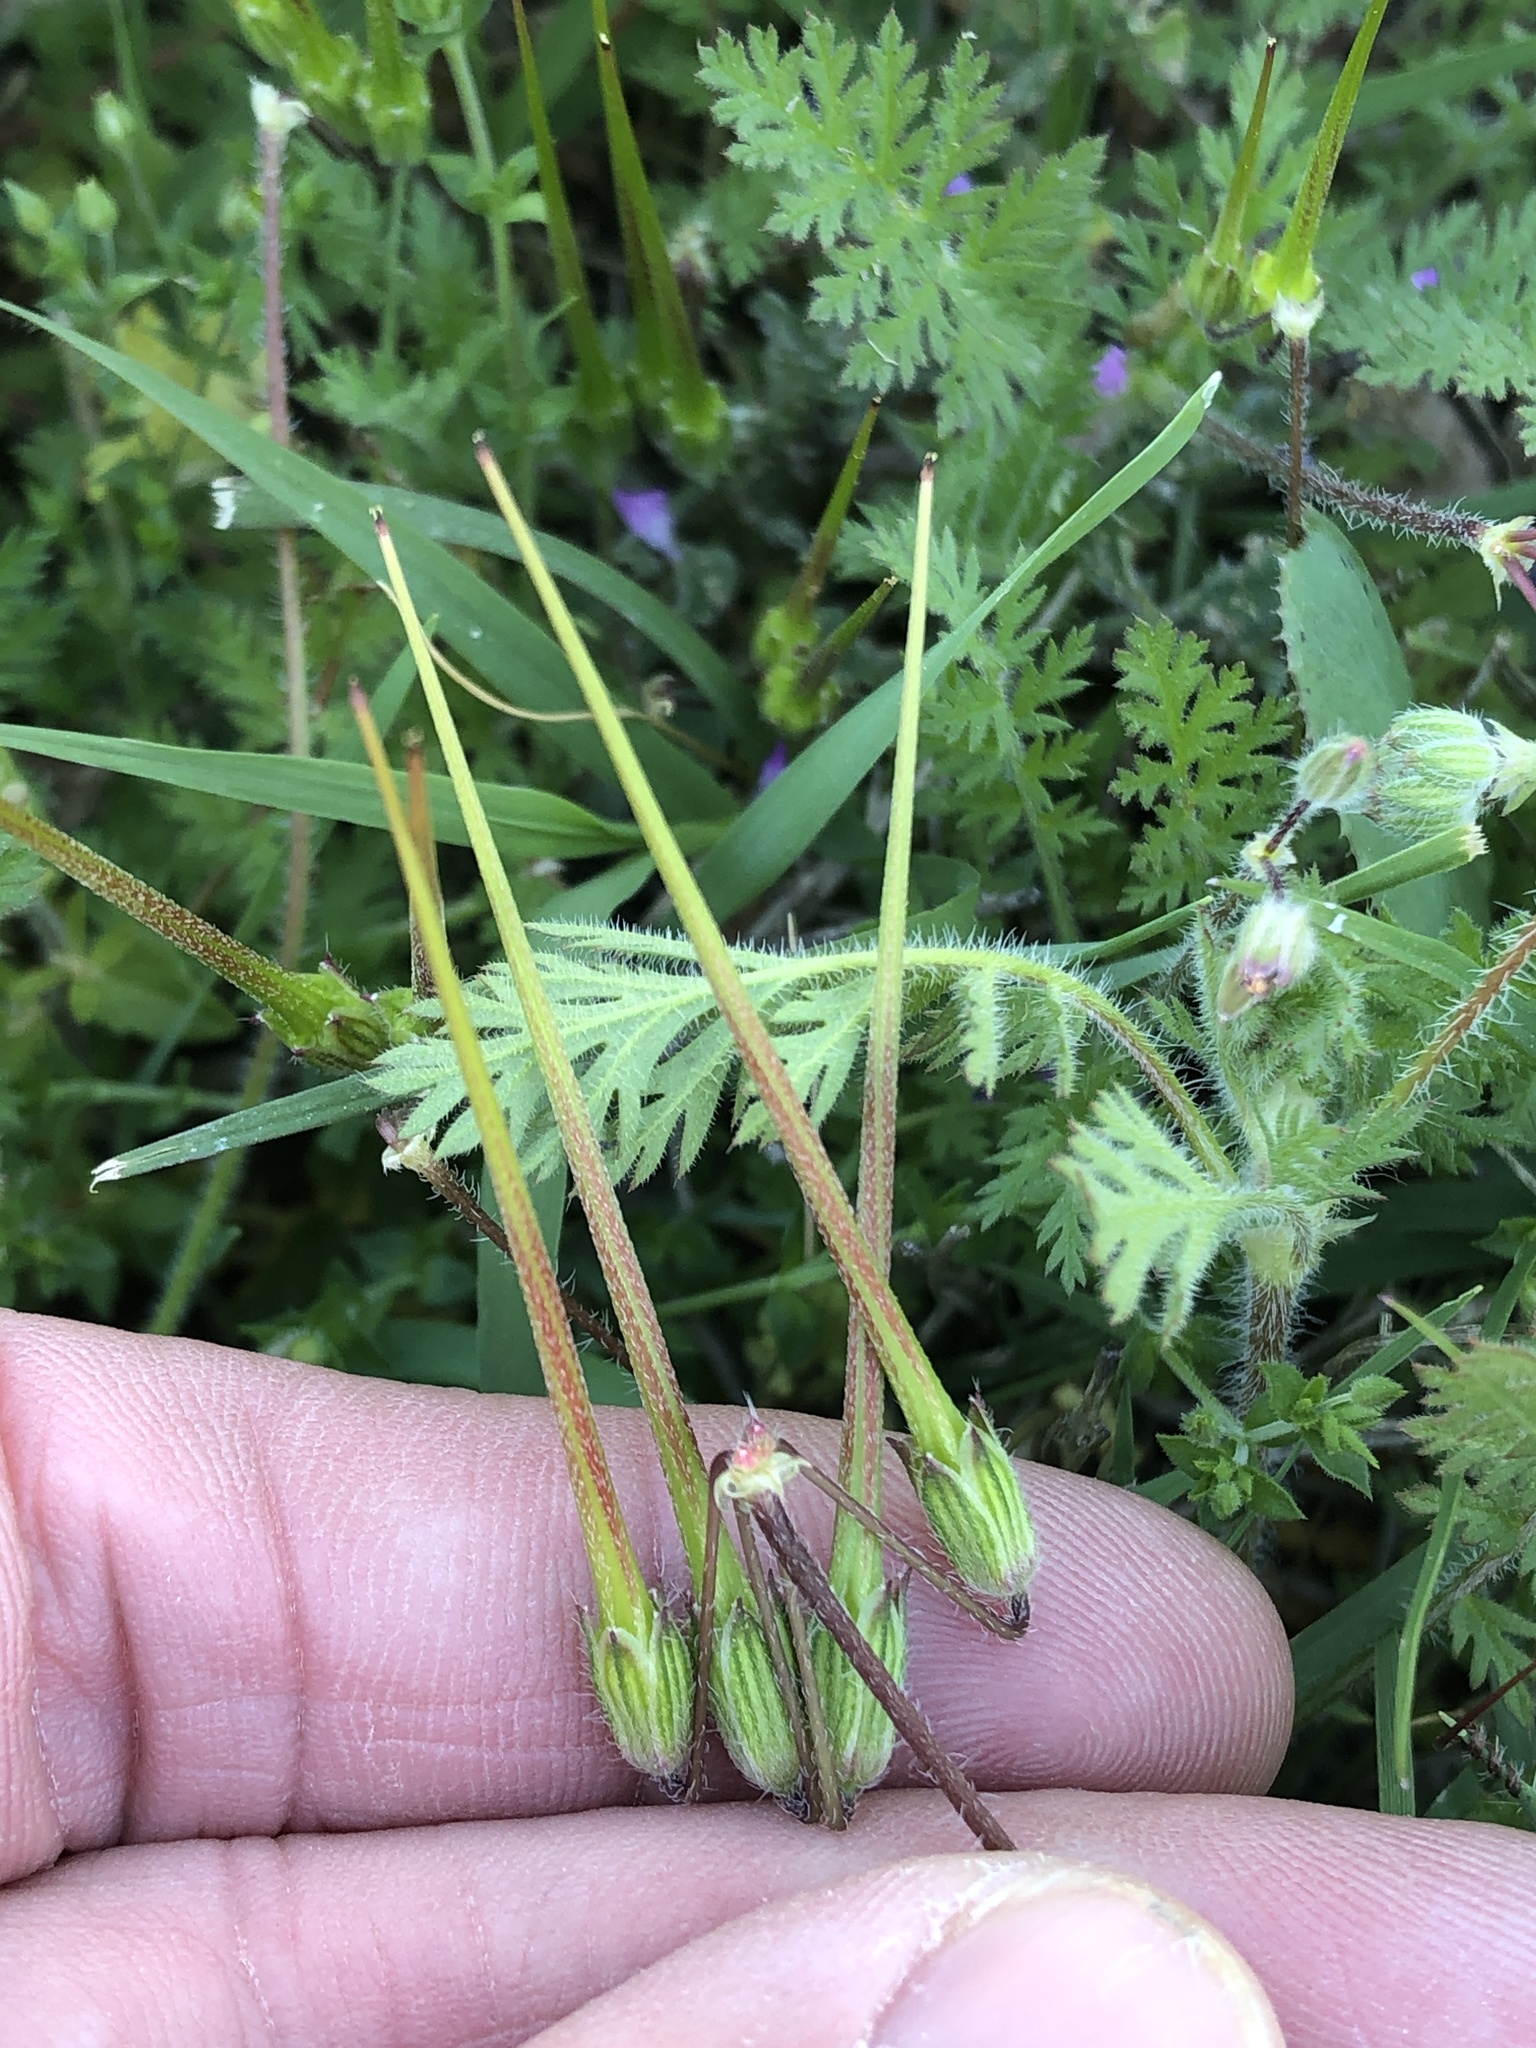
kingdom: Plantae
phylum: Tracheophyta
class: Magnoliopsida
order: Geraniales
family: Geraniaceae
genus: Erodium
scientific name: Erodium cicutarium
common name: Common stork's-bill
